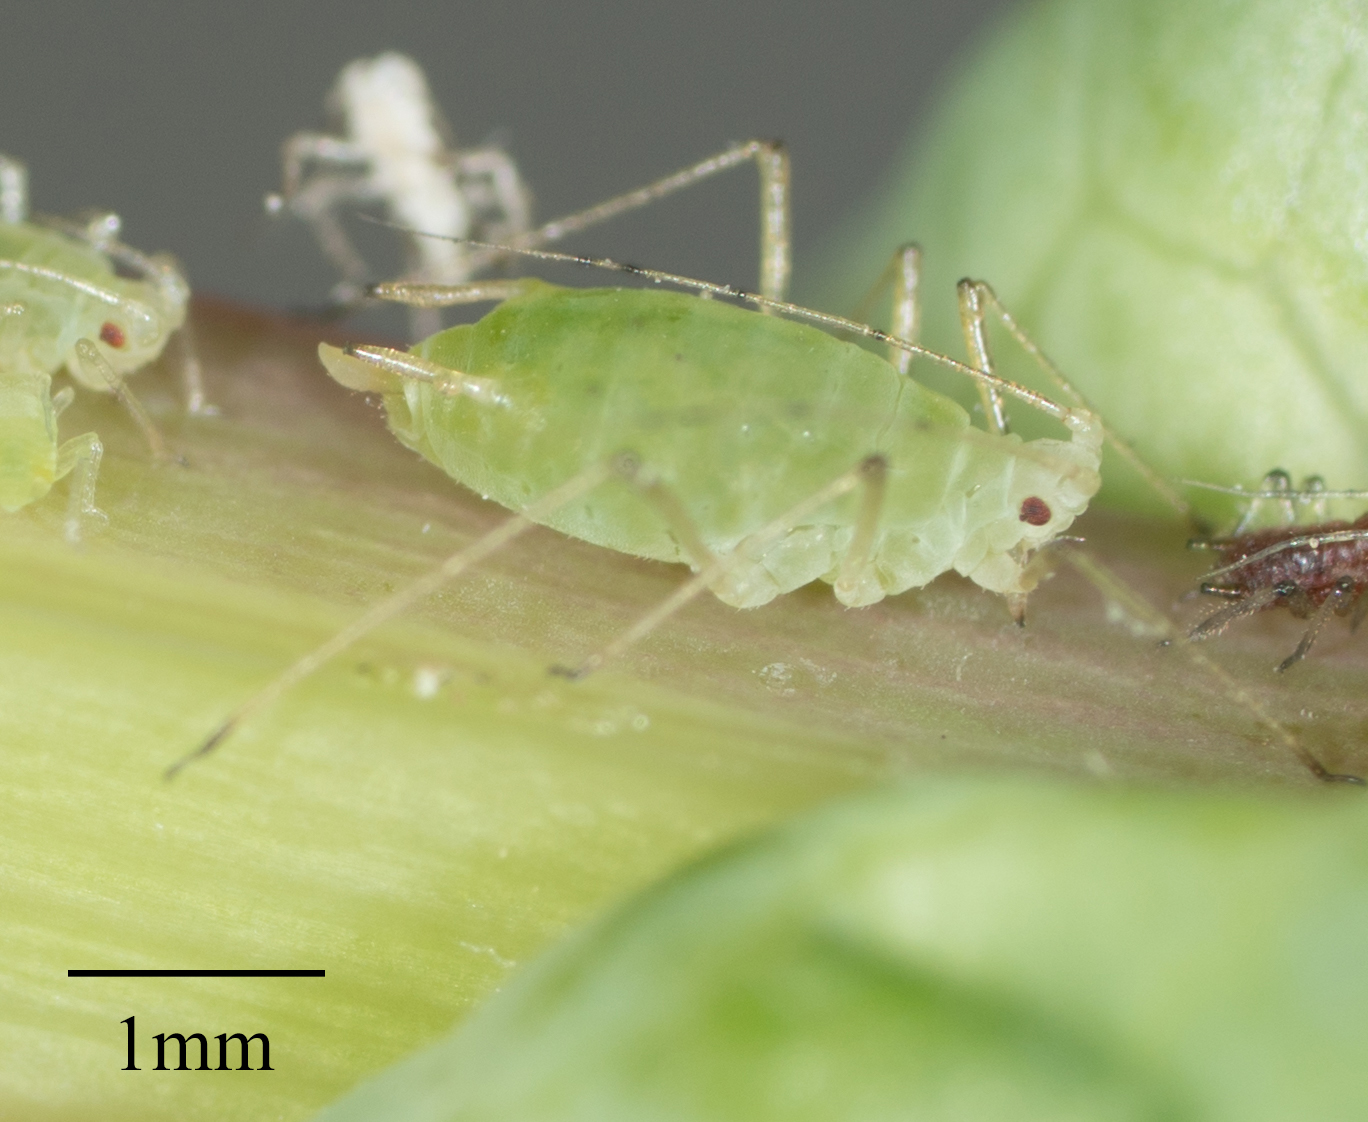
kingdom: Animalia
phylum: Arthropoda
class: Insecta
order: Hemiptera
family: Aphididae
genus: Hyperomyzus
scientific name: Hyperomyzus lactucae
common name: Sow thistle aphid
